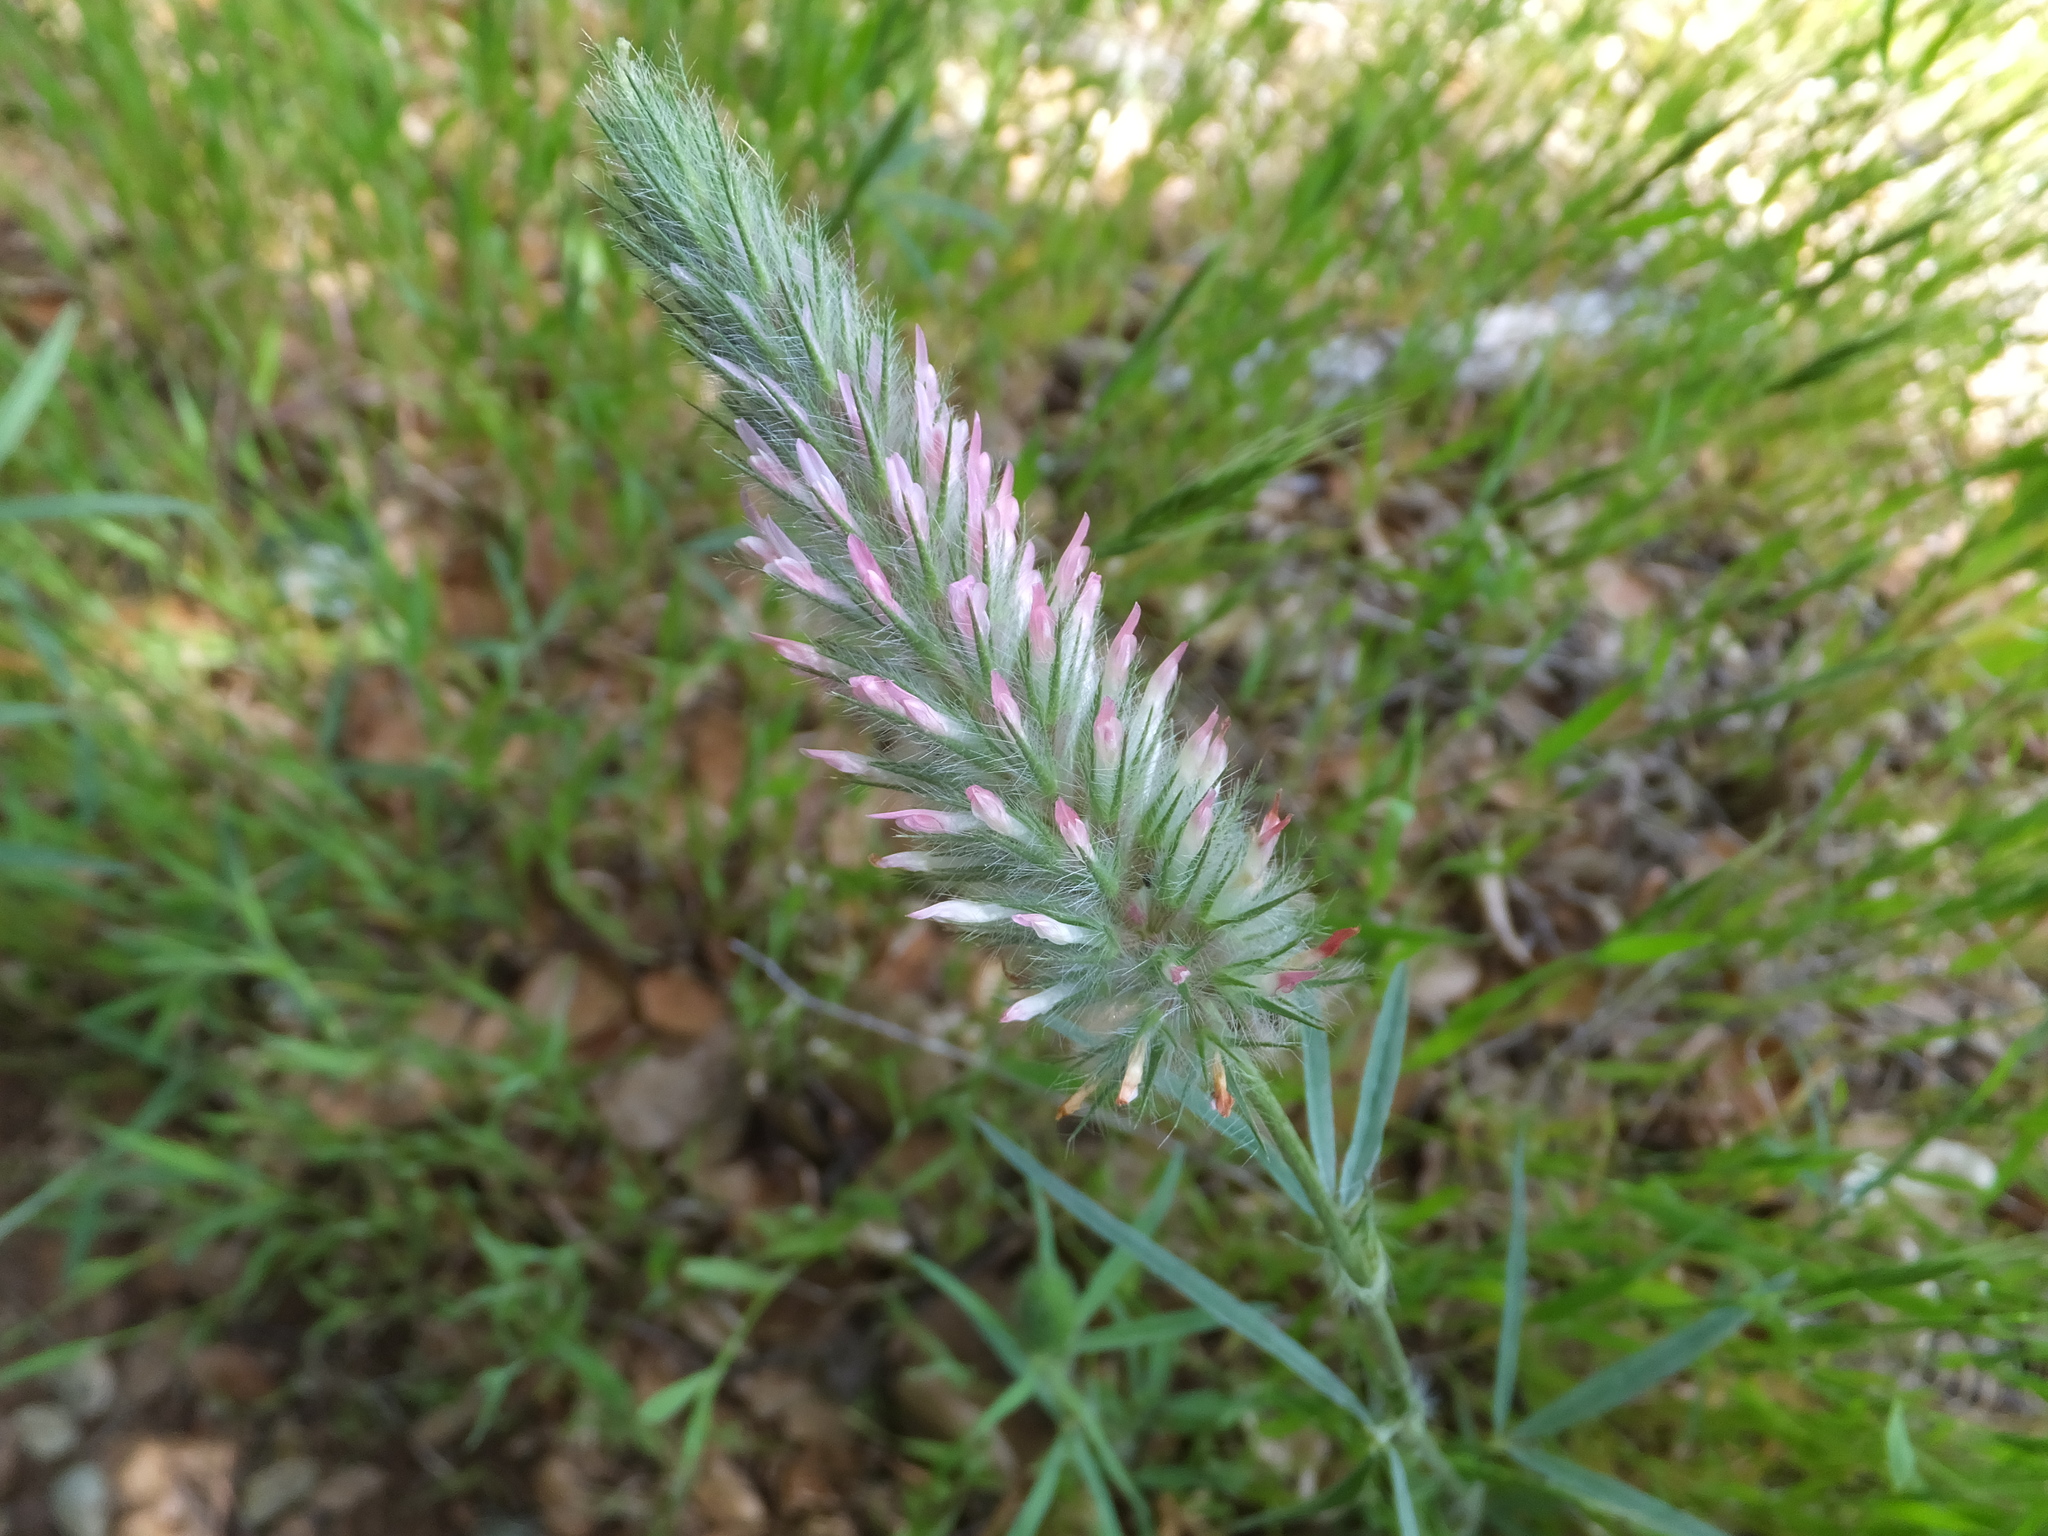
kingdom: Plantae
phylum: Tracheophyta
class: Magnoliopsida
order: Fabales
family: Fabaceae
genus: Trifolium
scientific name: Trifolium angustifolium
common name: Narrow clover
